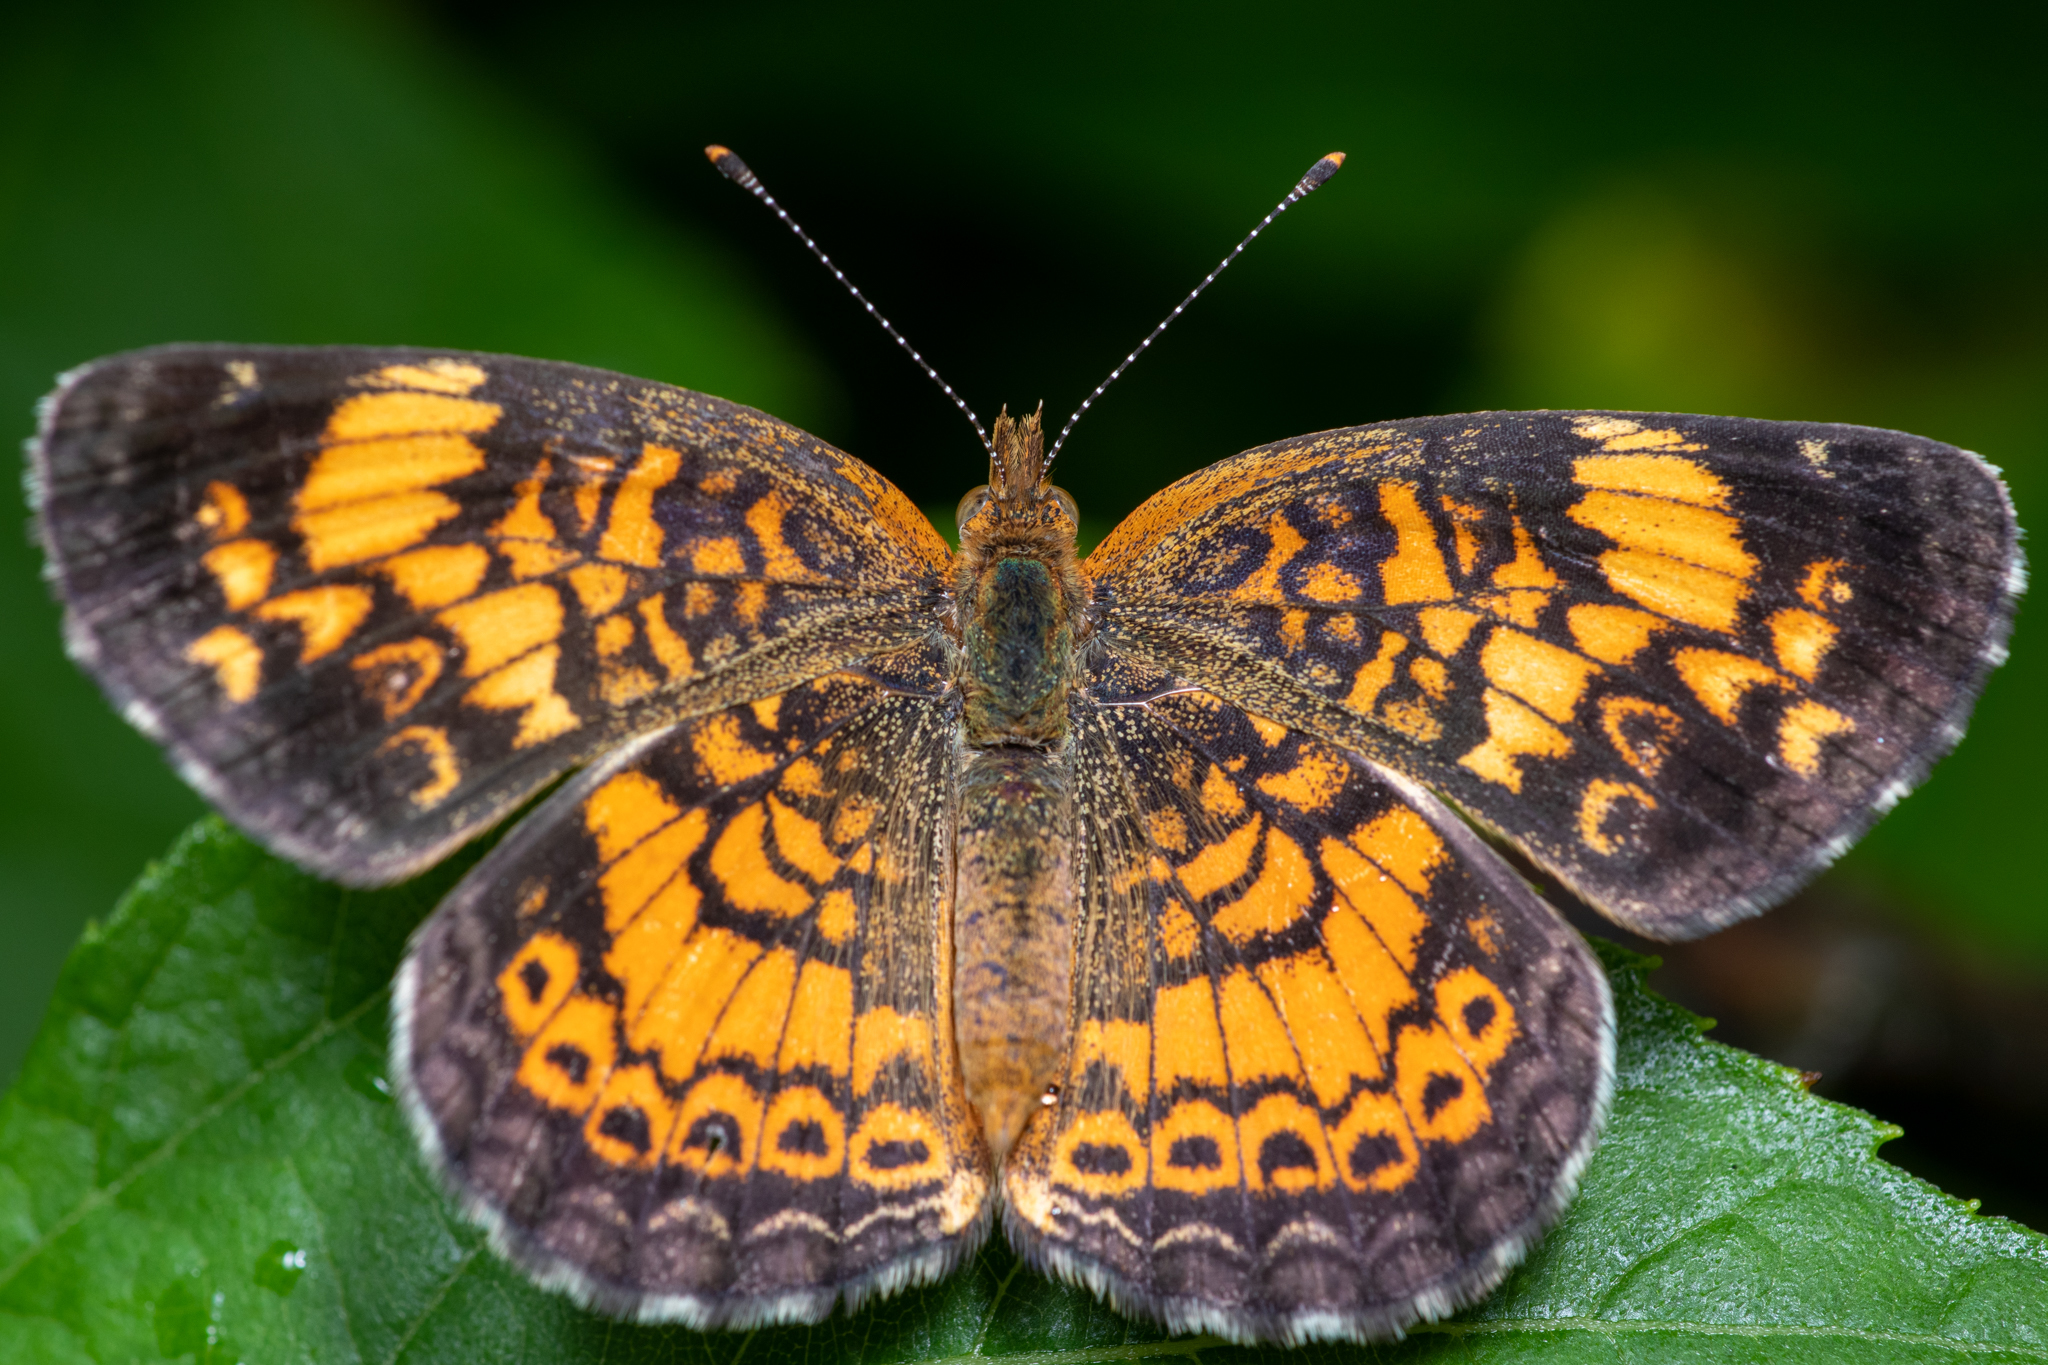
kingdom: Animalia
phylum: Arthropoda
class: Insecta
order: Lepidoptera
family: Nymphalidae
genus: Phyciodes
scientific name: Phyciodes tharos
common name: Pearl crescent
